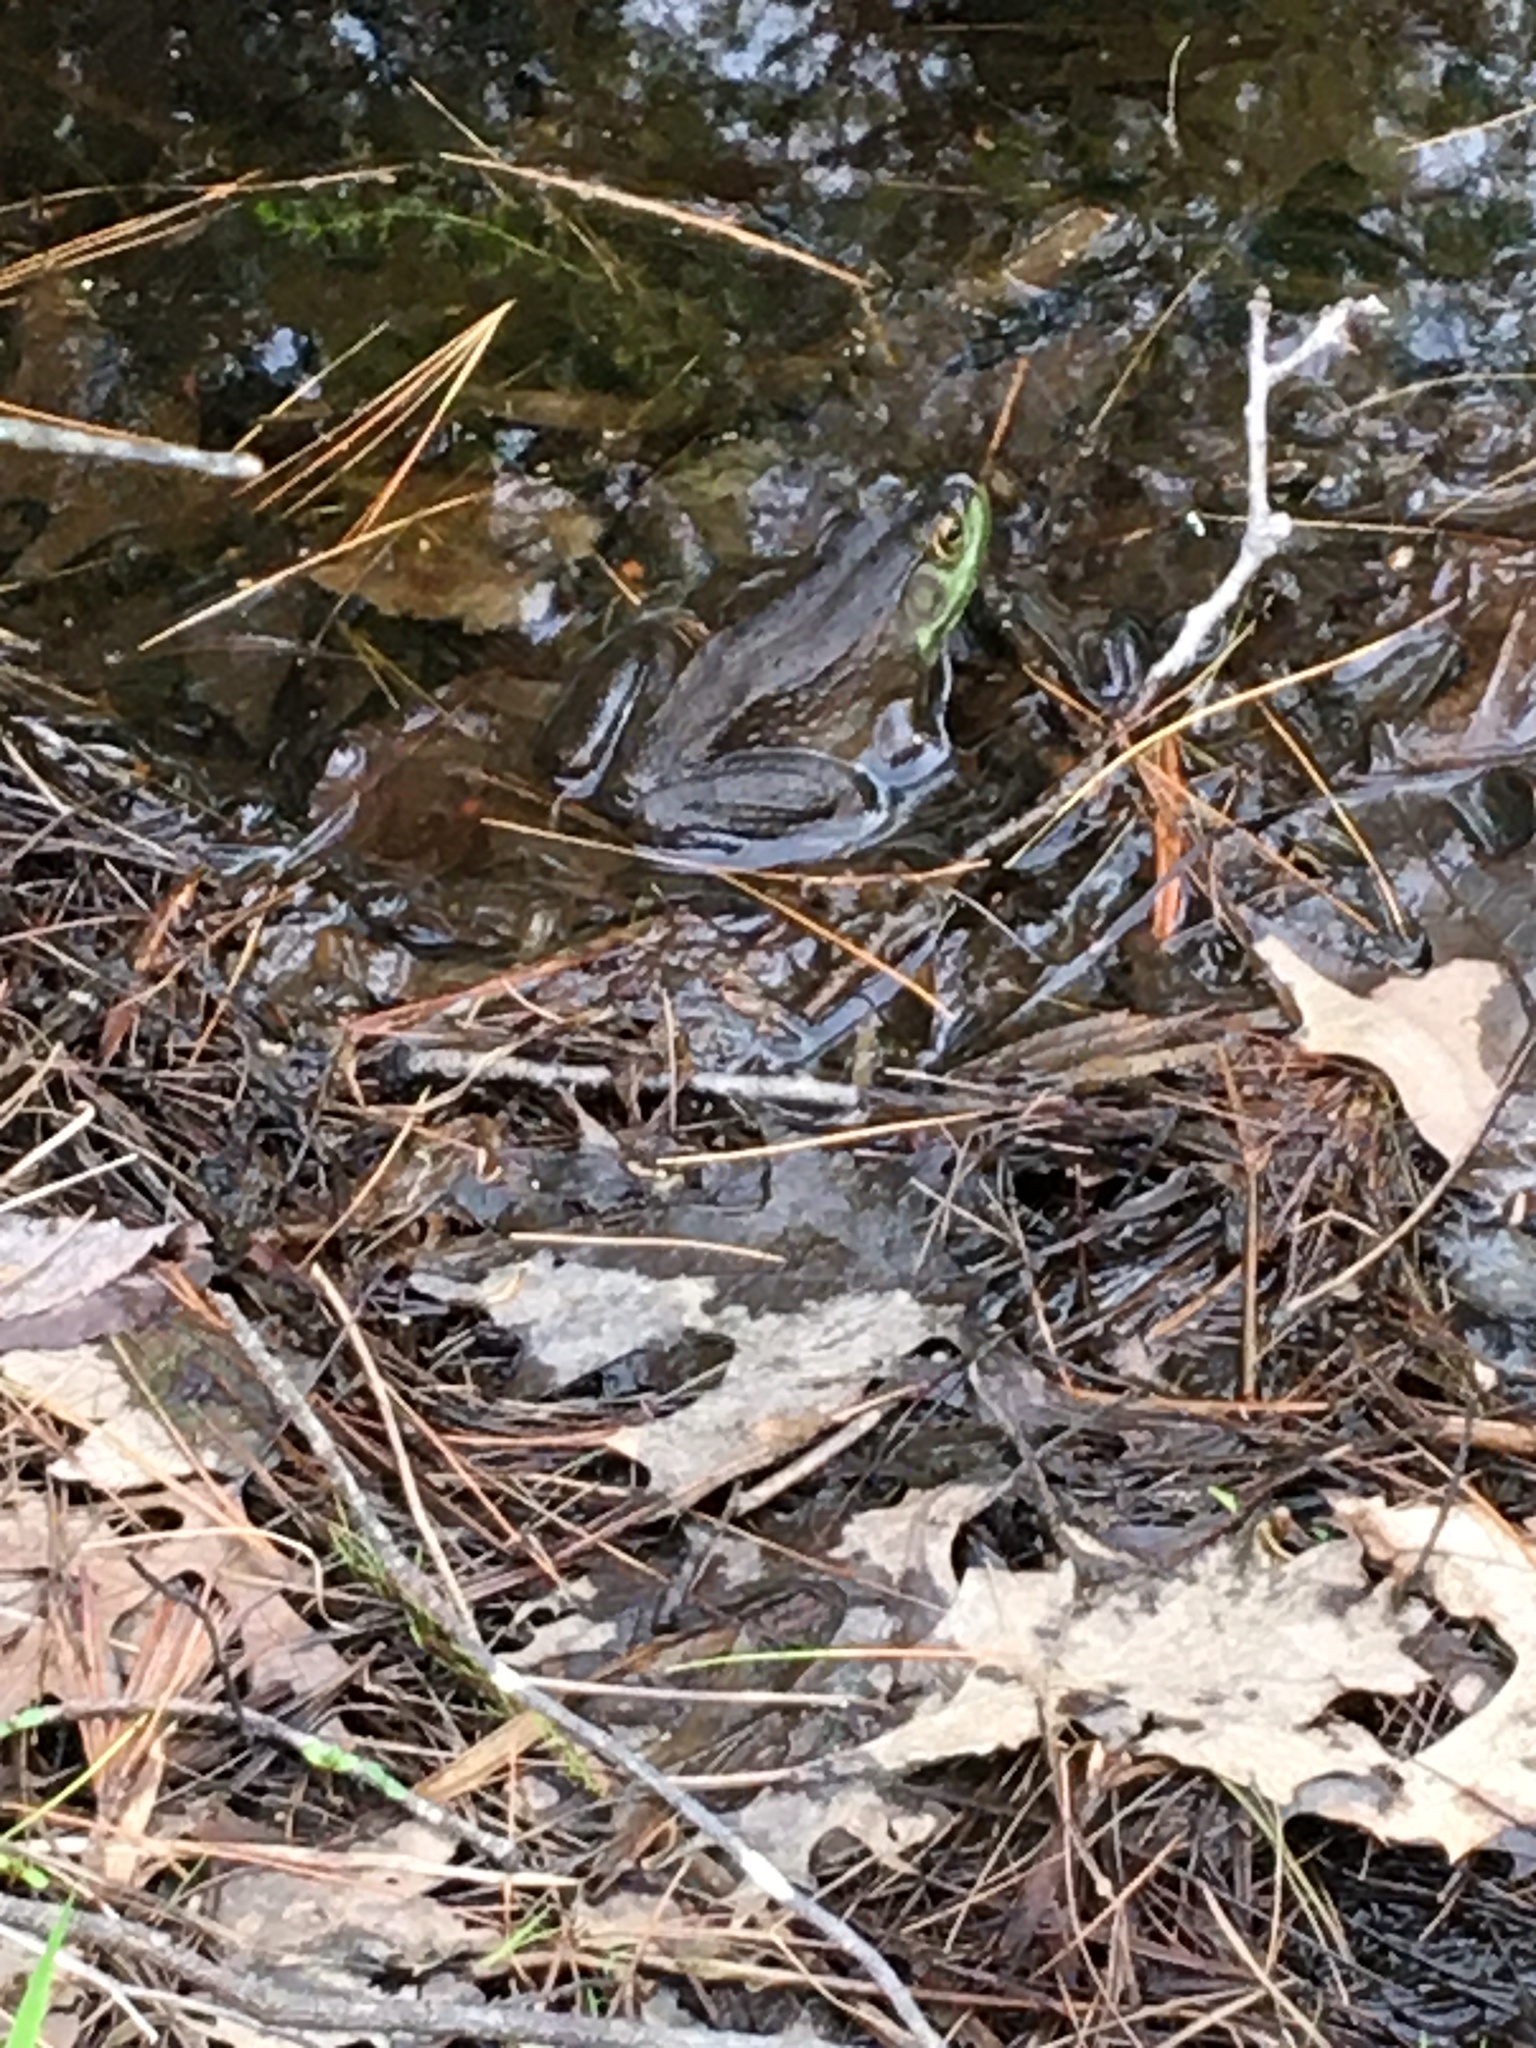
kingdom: Animalia
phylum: Chordata
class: Amphibia
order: Anura
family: Ranidae
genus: Lithobates
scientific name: Lithobates catesbeianus
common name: American bullfrog
